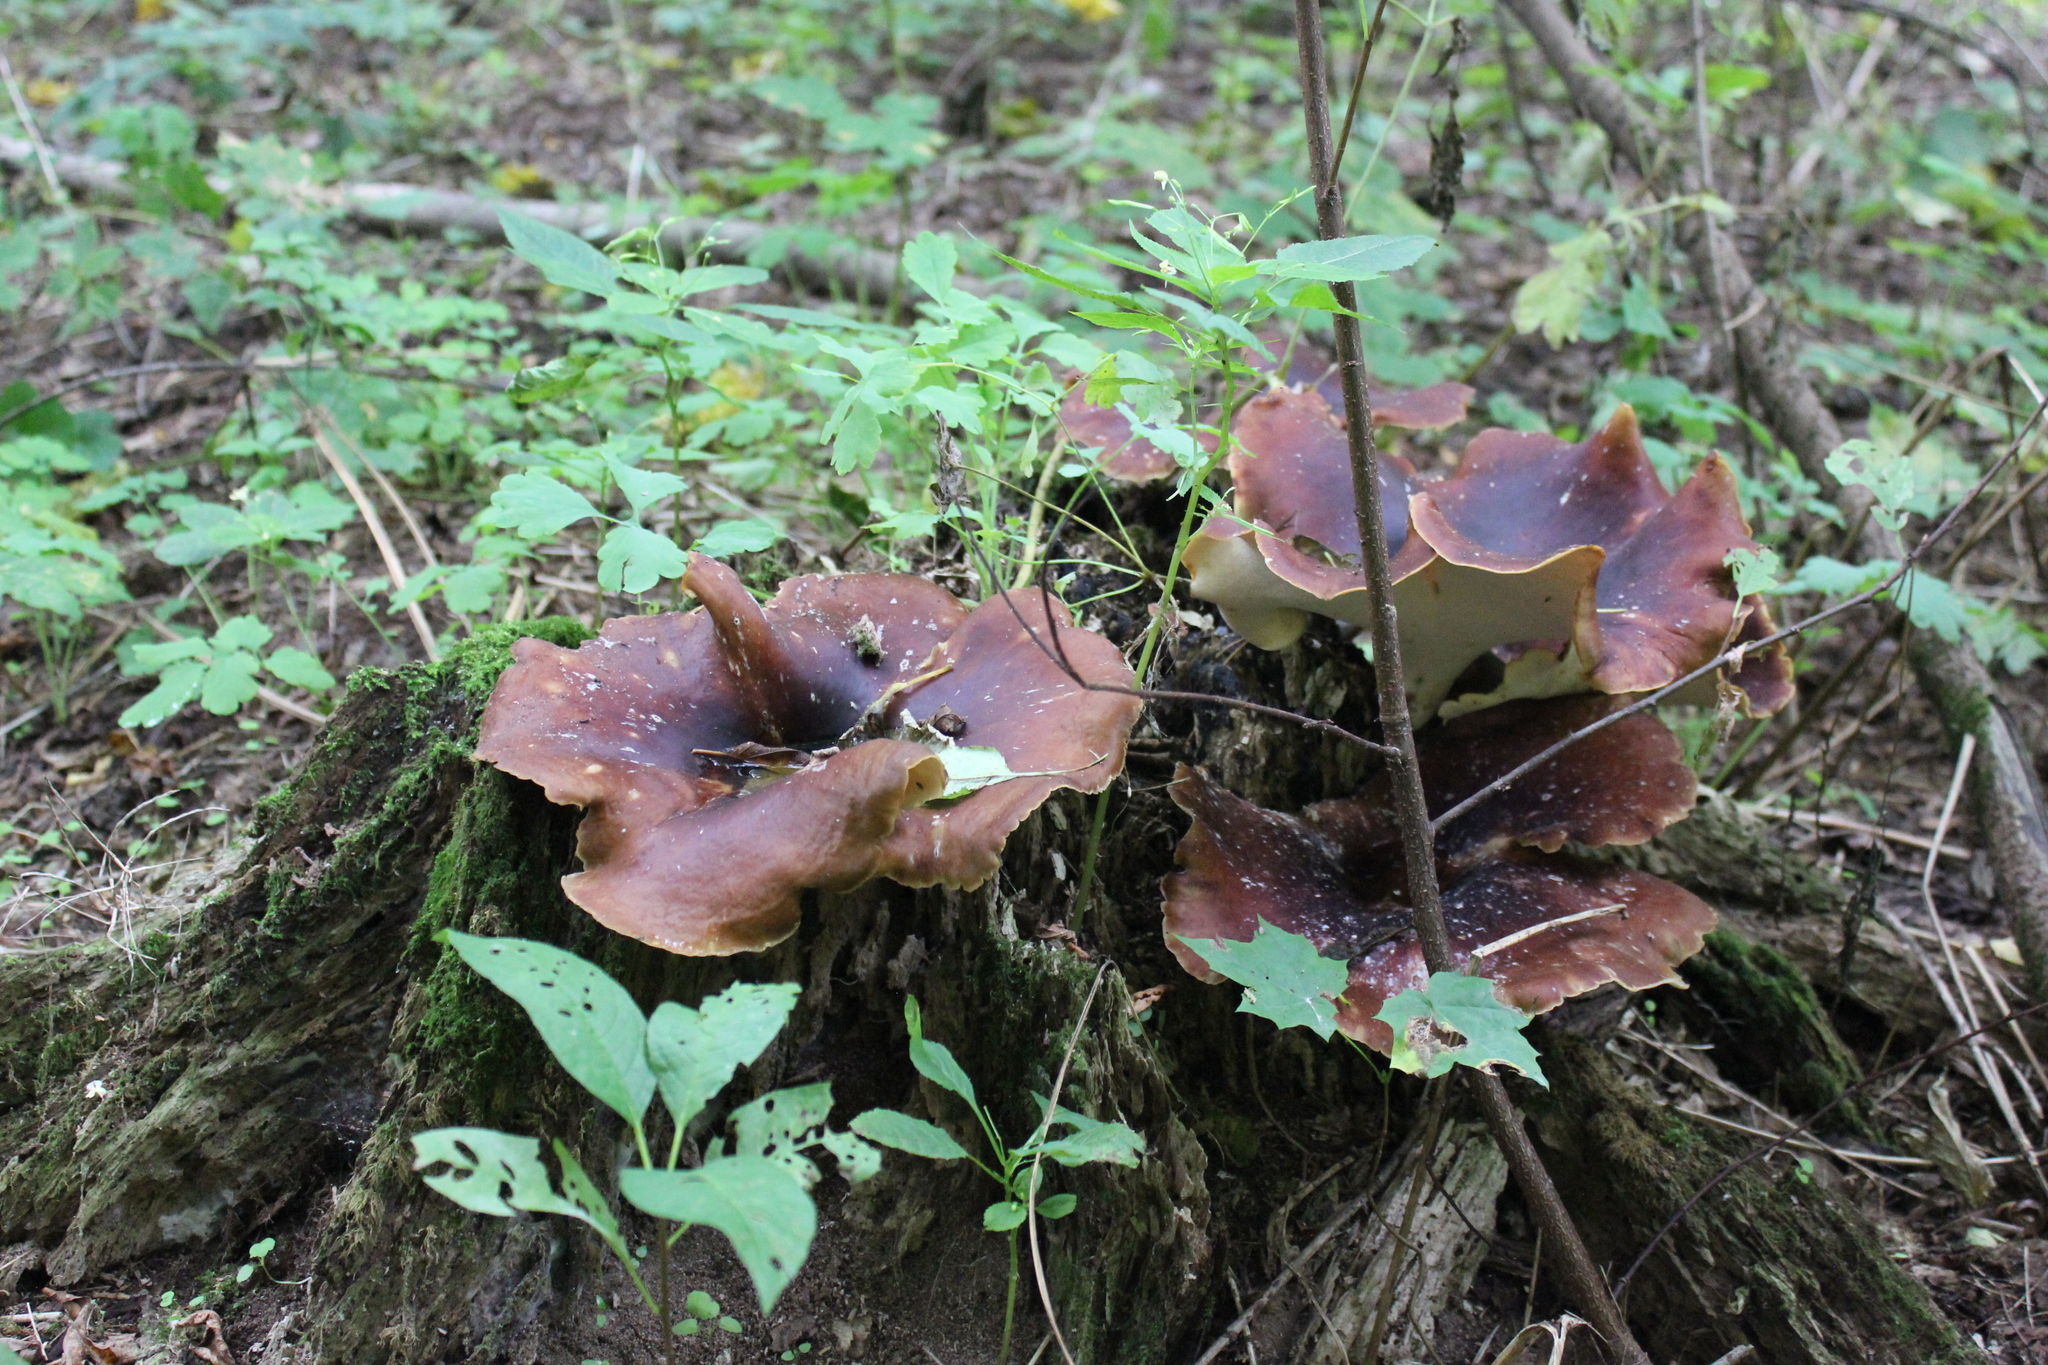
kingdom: Fungi
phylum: Basidiomycota
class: Agaricomycetes
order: Polyporales
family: Polyporaceae
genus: Picipes
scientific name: Picipes badius
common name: Bay polypore
